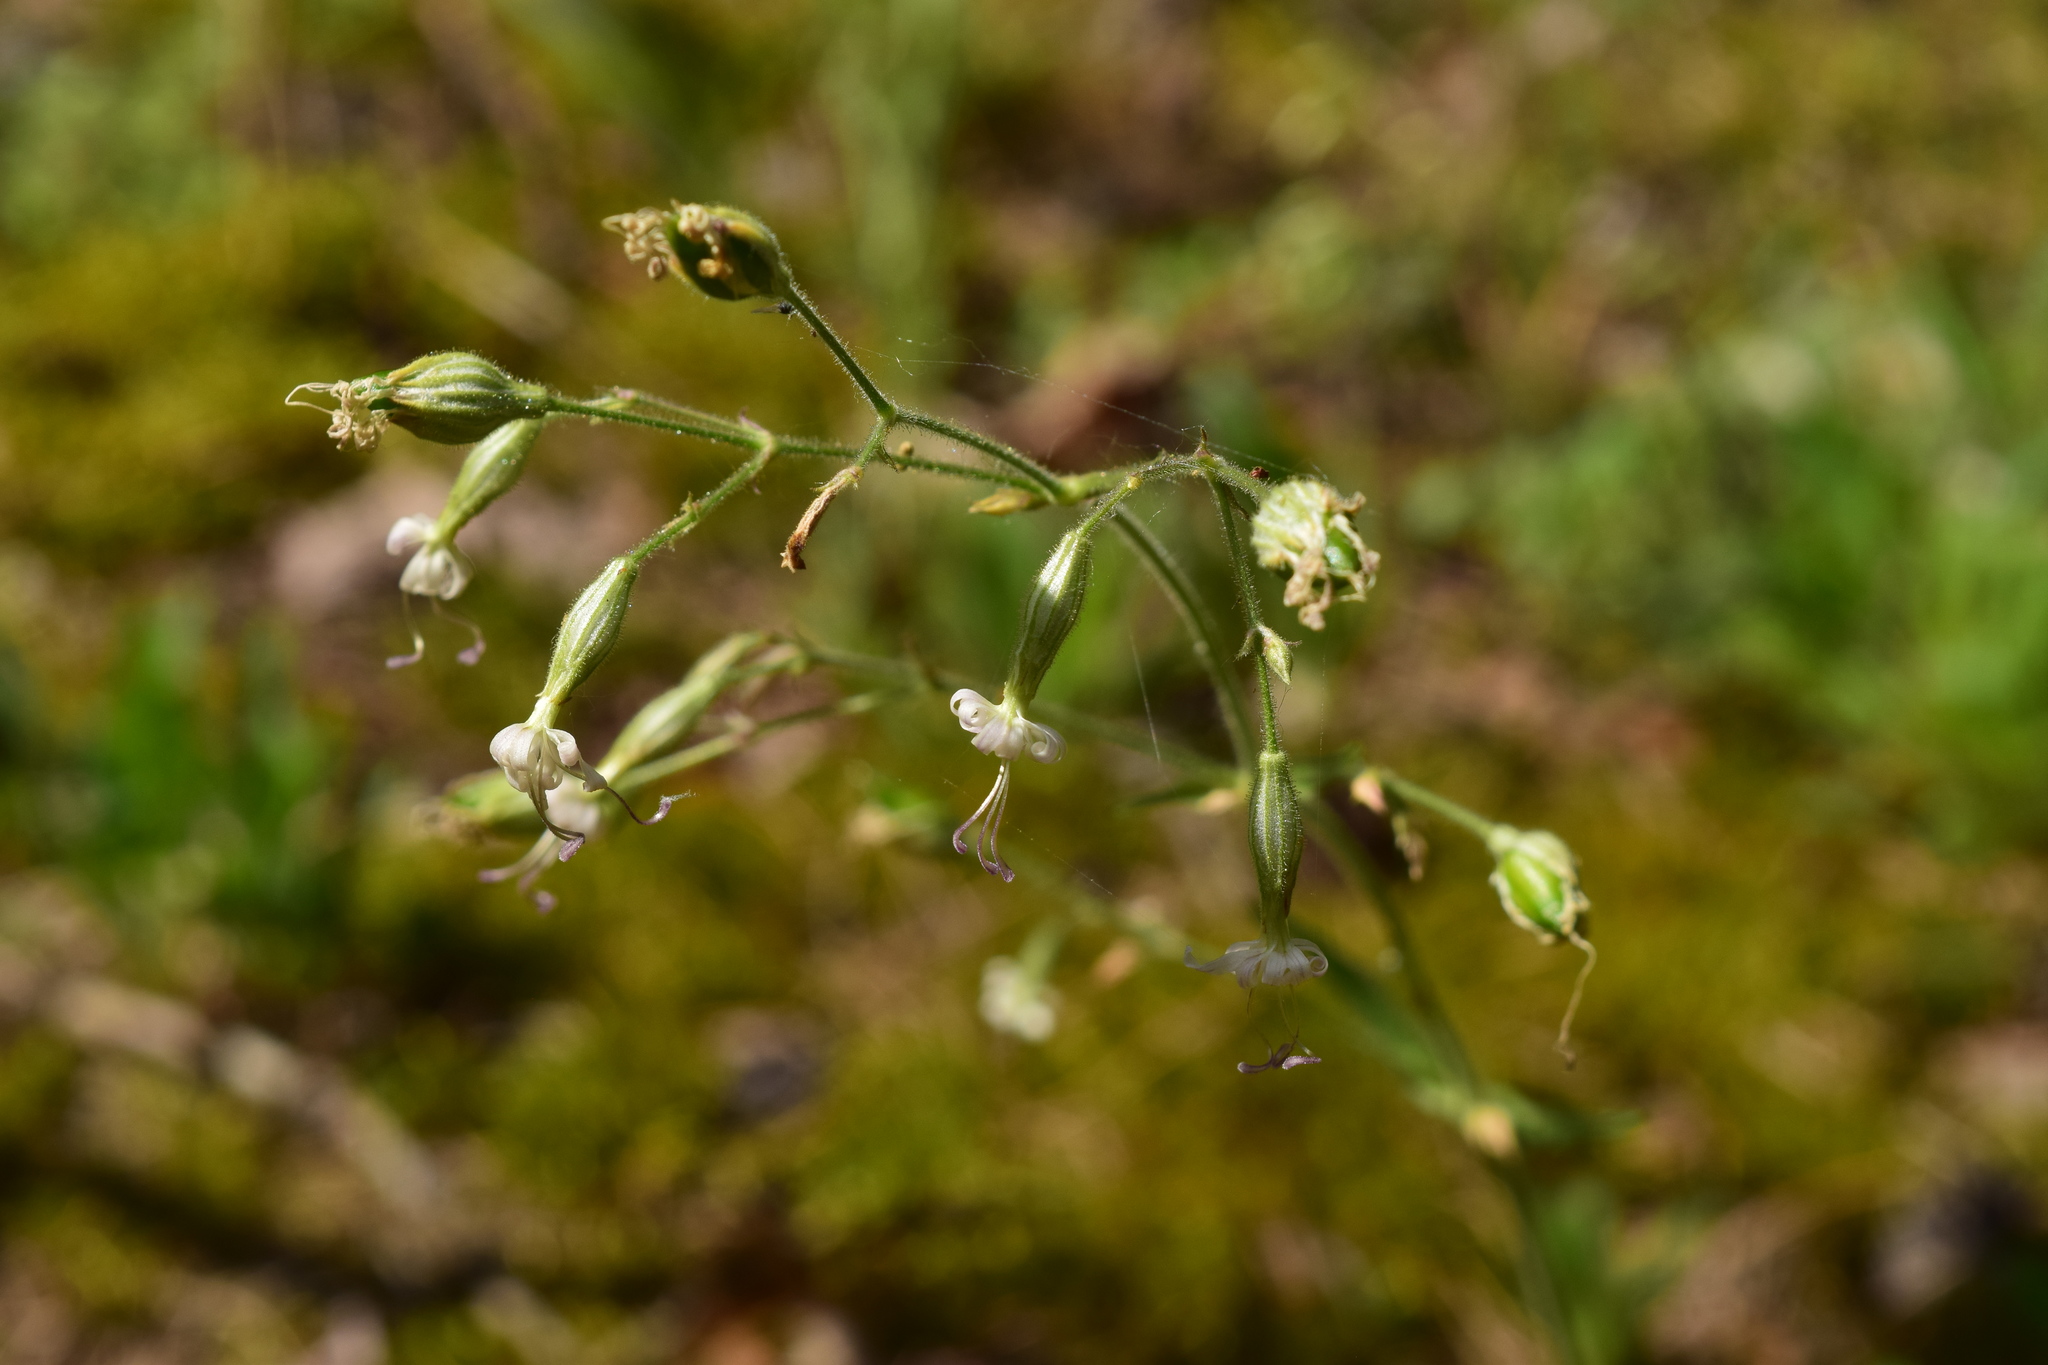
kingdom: Plantae
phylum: Tracheophyta
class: Magnoliopsida
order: Caryophyllales
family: Caryophyllaceae
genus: Silene
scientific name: Silene nutans
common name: Nottingham catchfly
